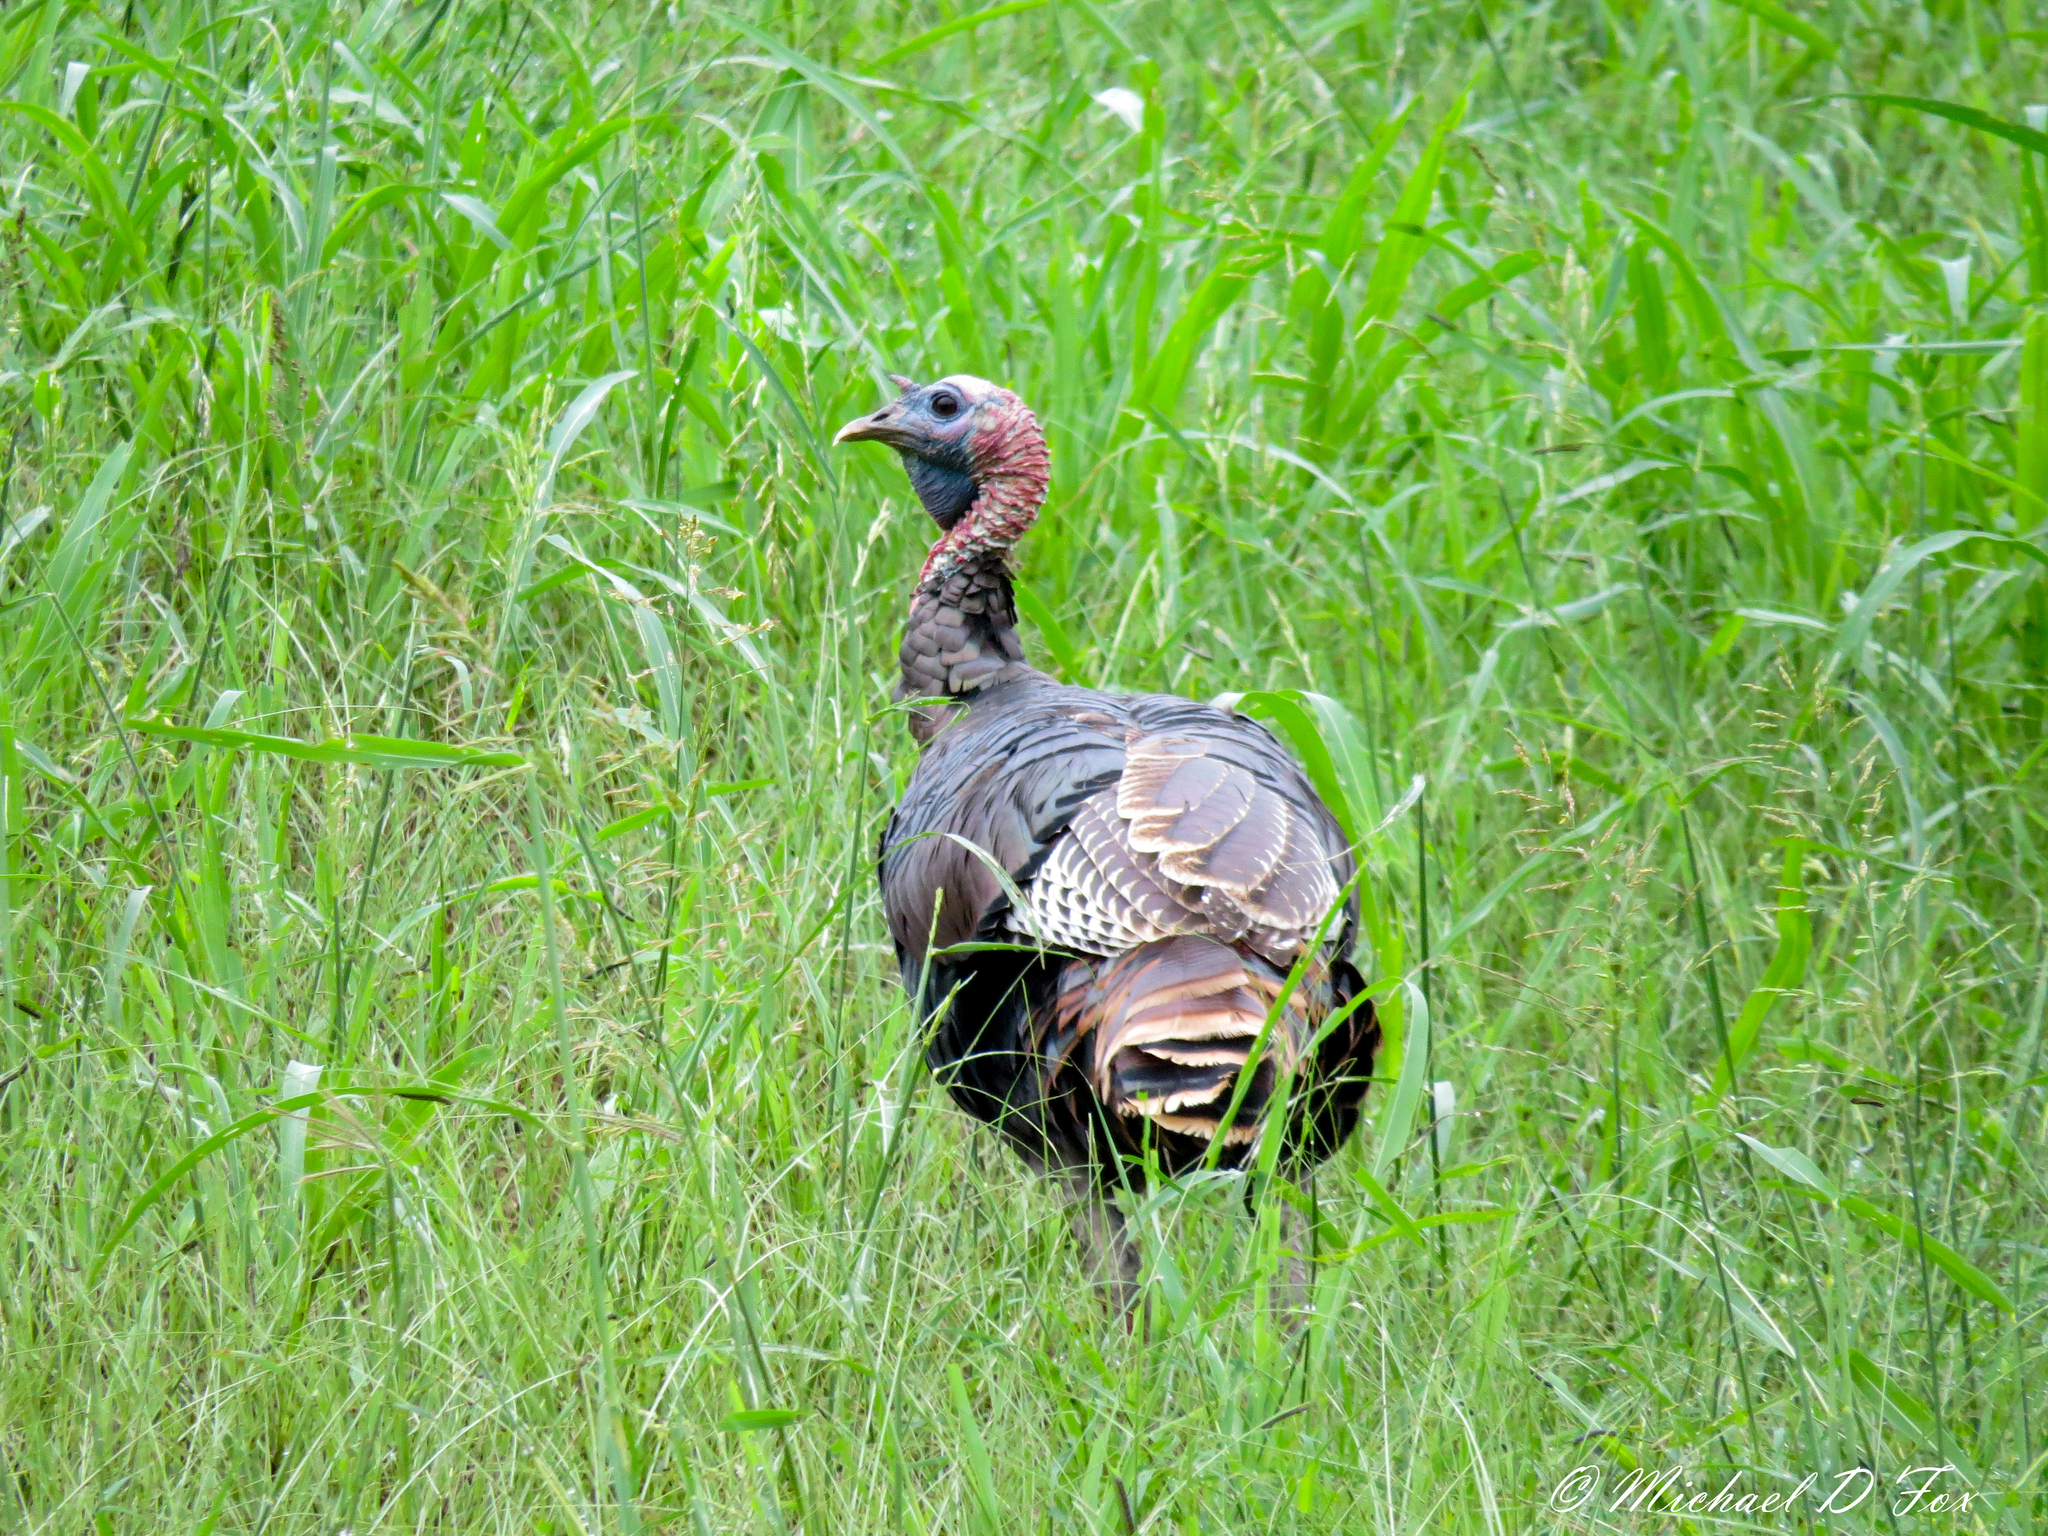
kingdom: Animalia
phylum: Chordata
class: Aves
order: Galliformes
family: Phasianidae
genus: Meleagris
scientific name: Meleagris gallopavo
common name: Wild turkey
